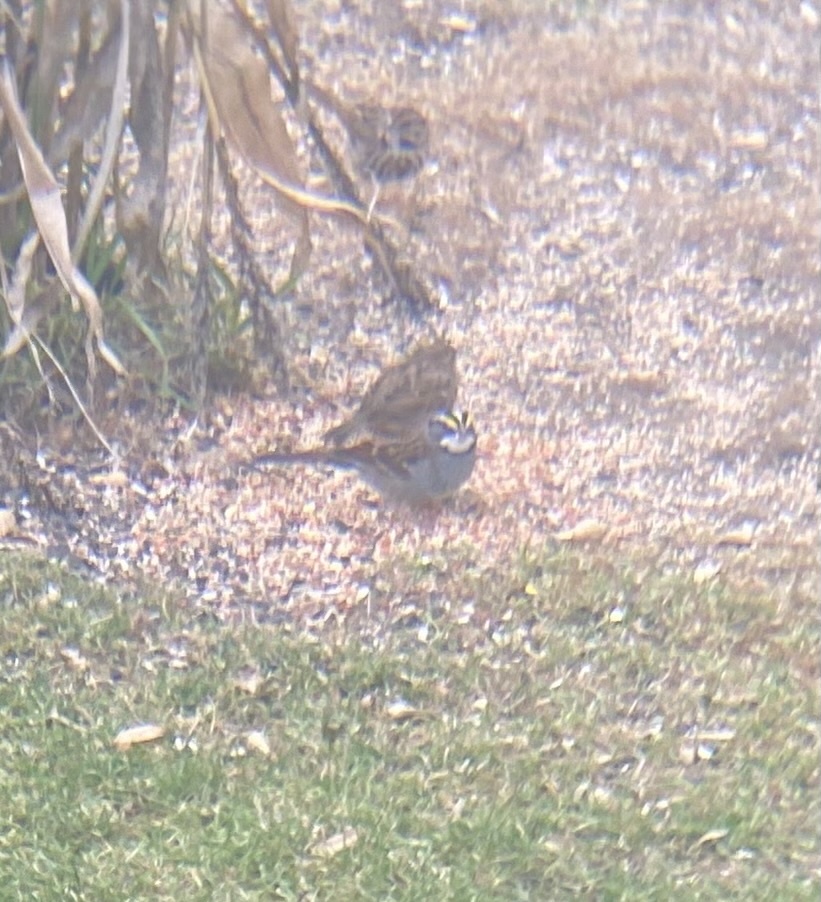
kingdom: Animalia
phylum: Chordata
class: Aves
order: Passeriformes
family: Passerellidae
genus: Zonotrichia
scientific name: Zonotrichia albicollis
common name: White-throated sparrow
